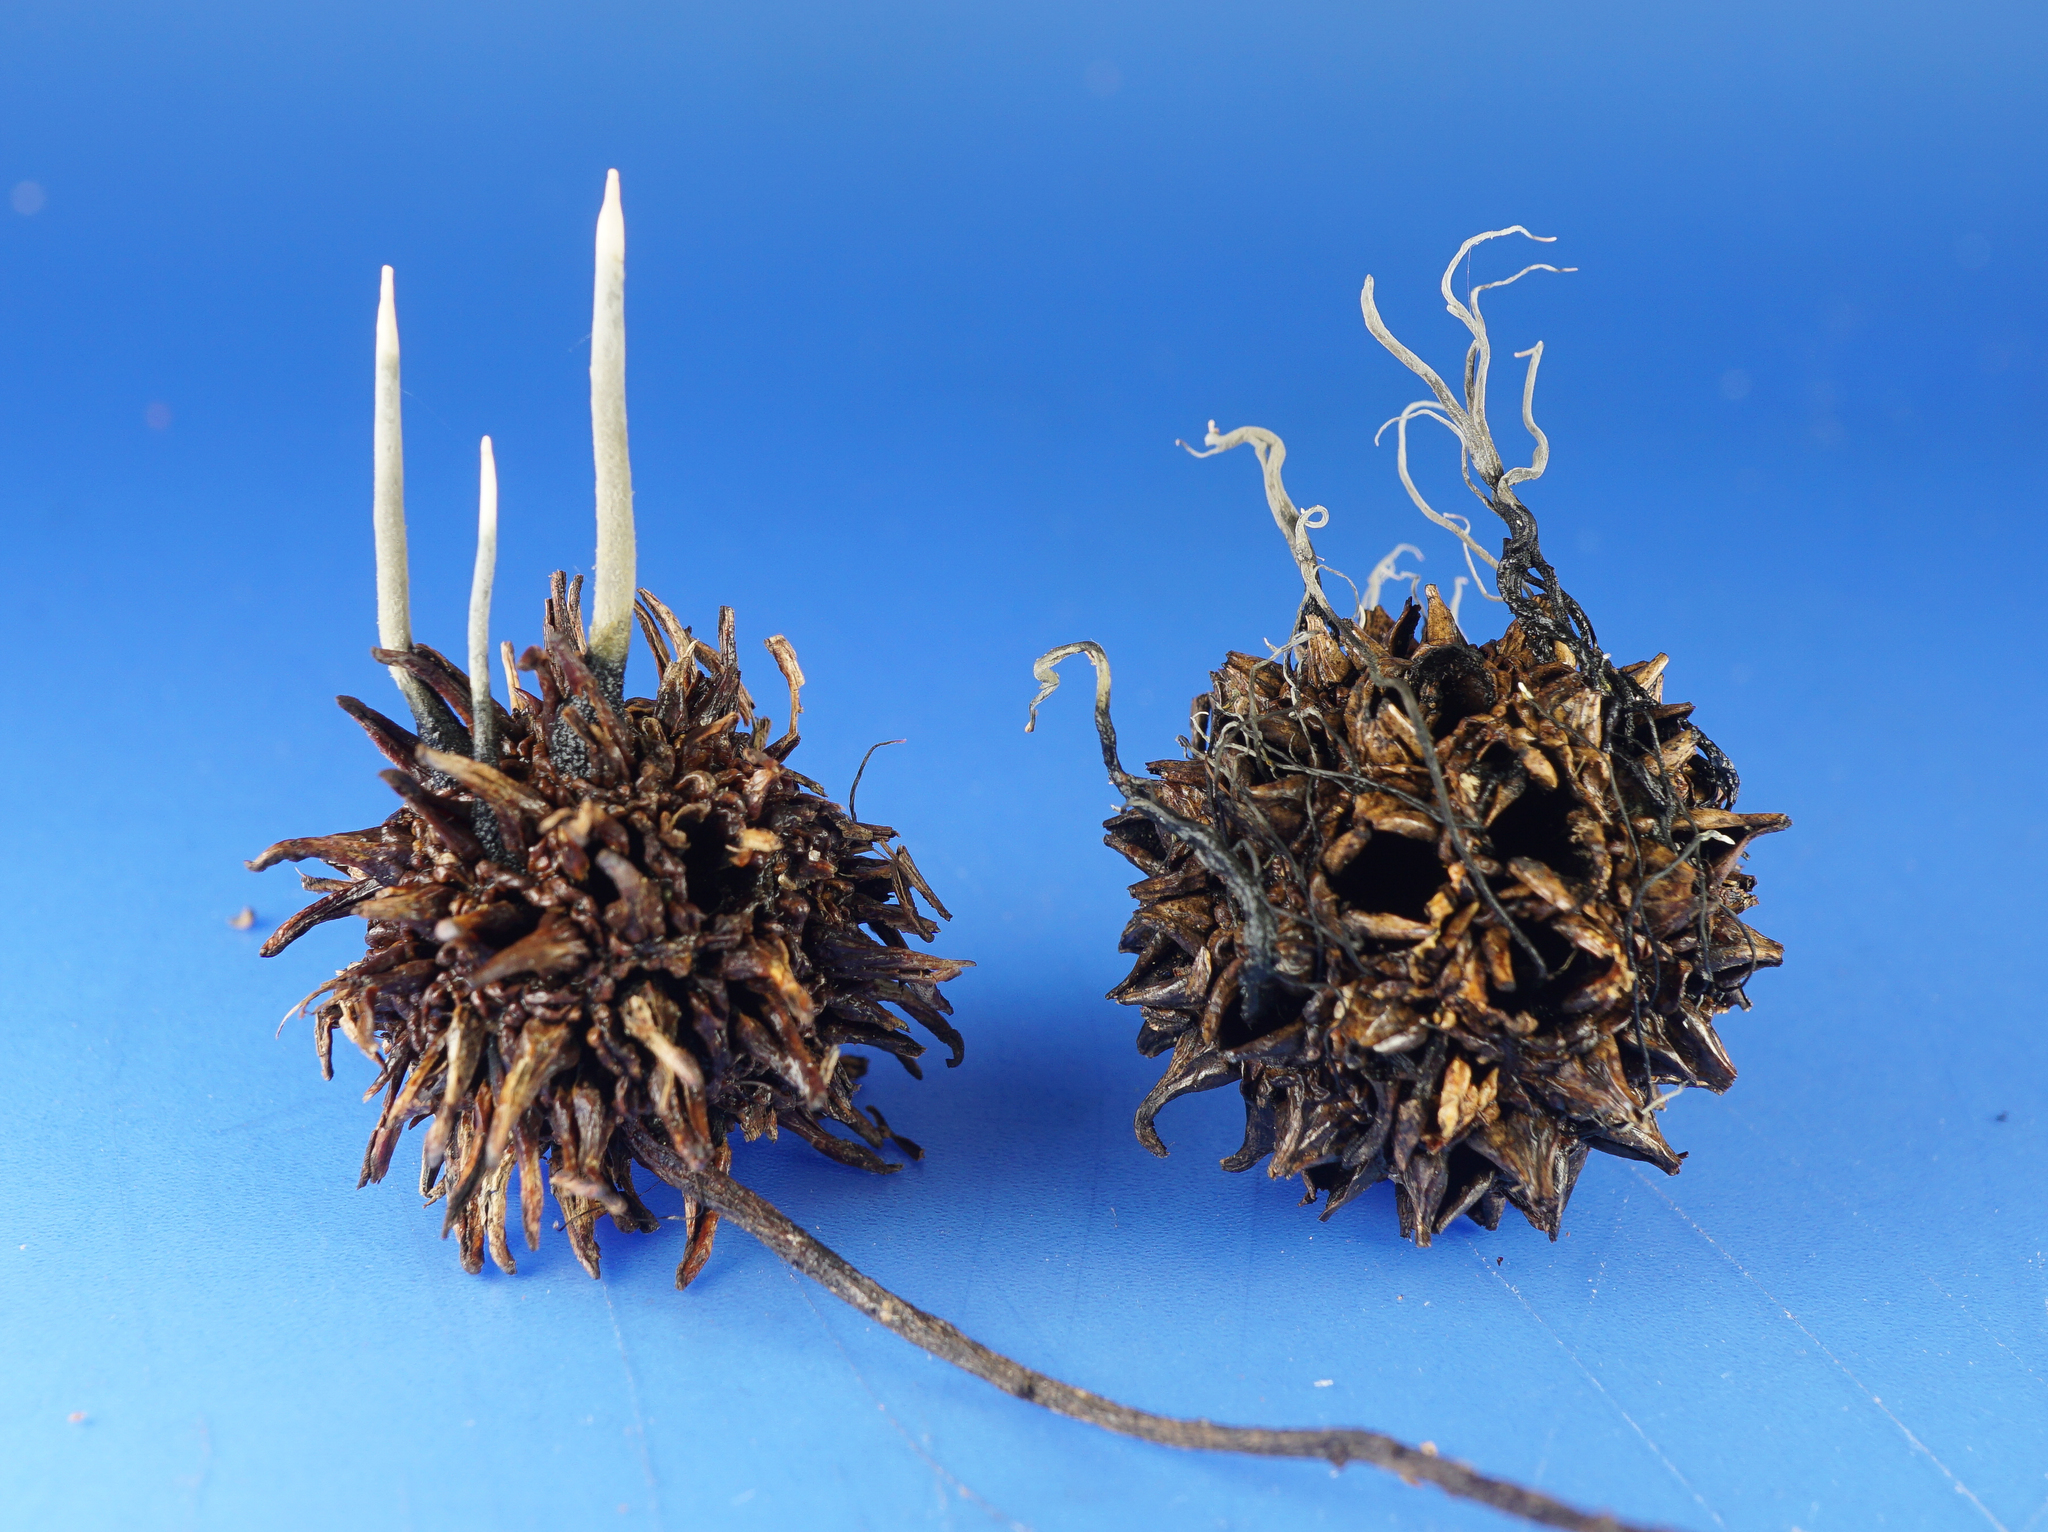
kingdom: Fungi
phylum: Ascomycota
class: Sordariomycetes
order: Xylariales
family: Xylariaceae
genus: Xylaria
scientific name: Xylaria liquidambaris
